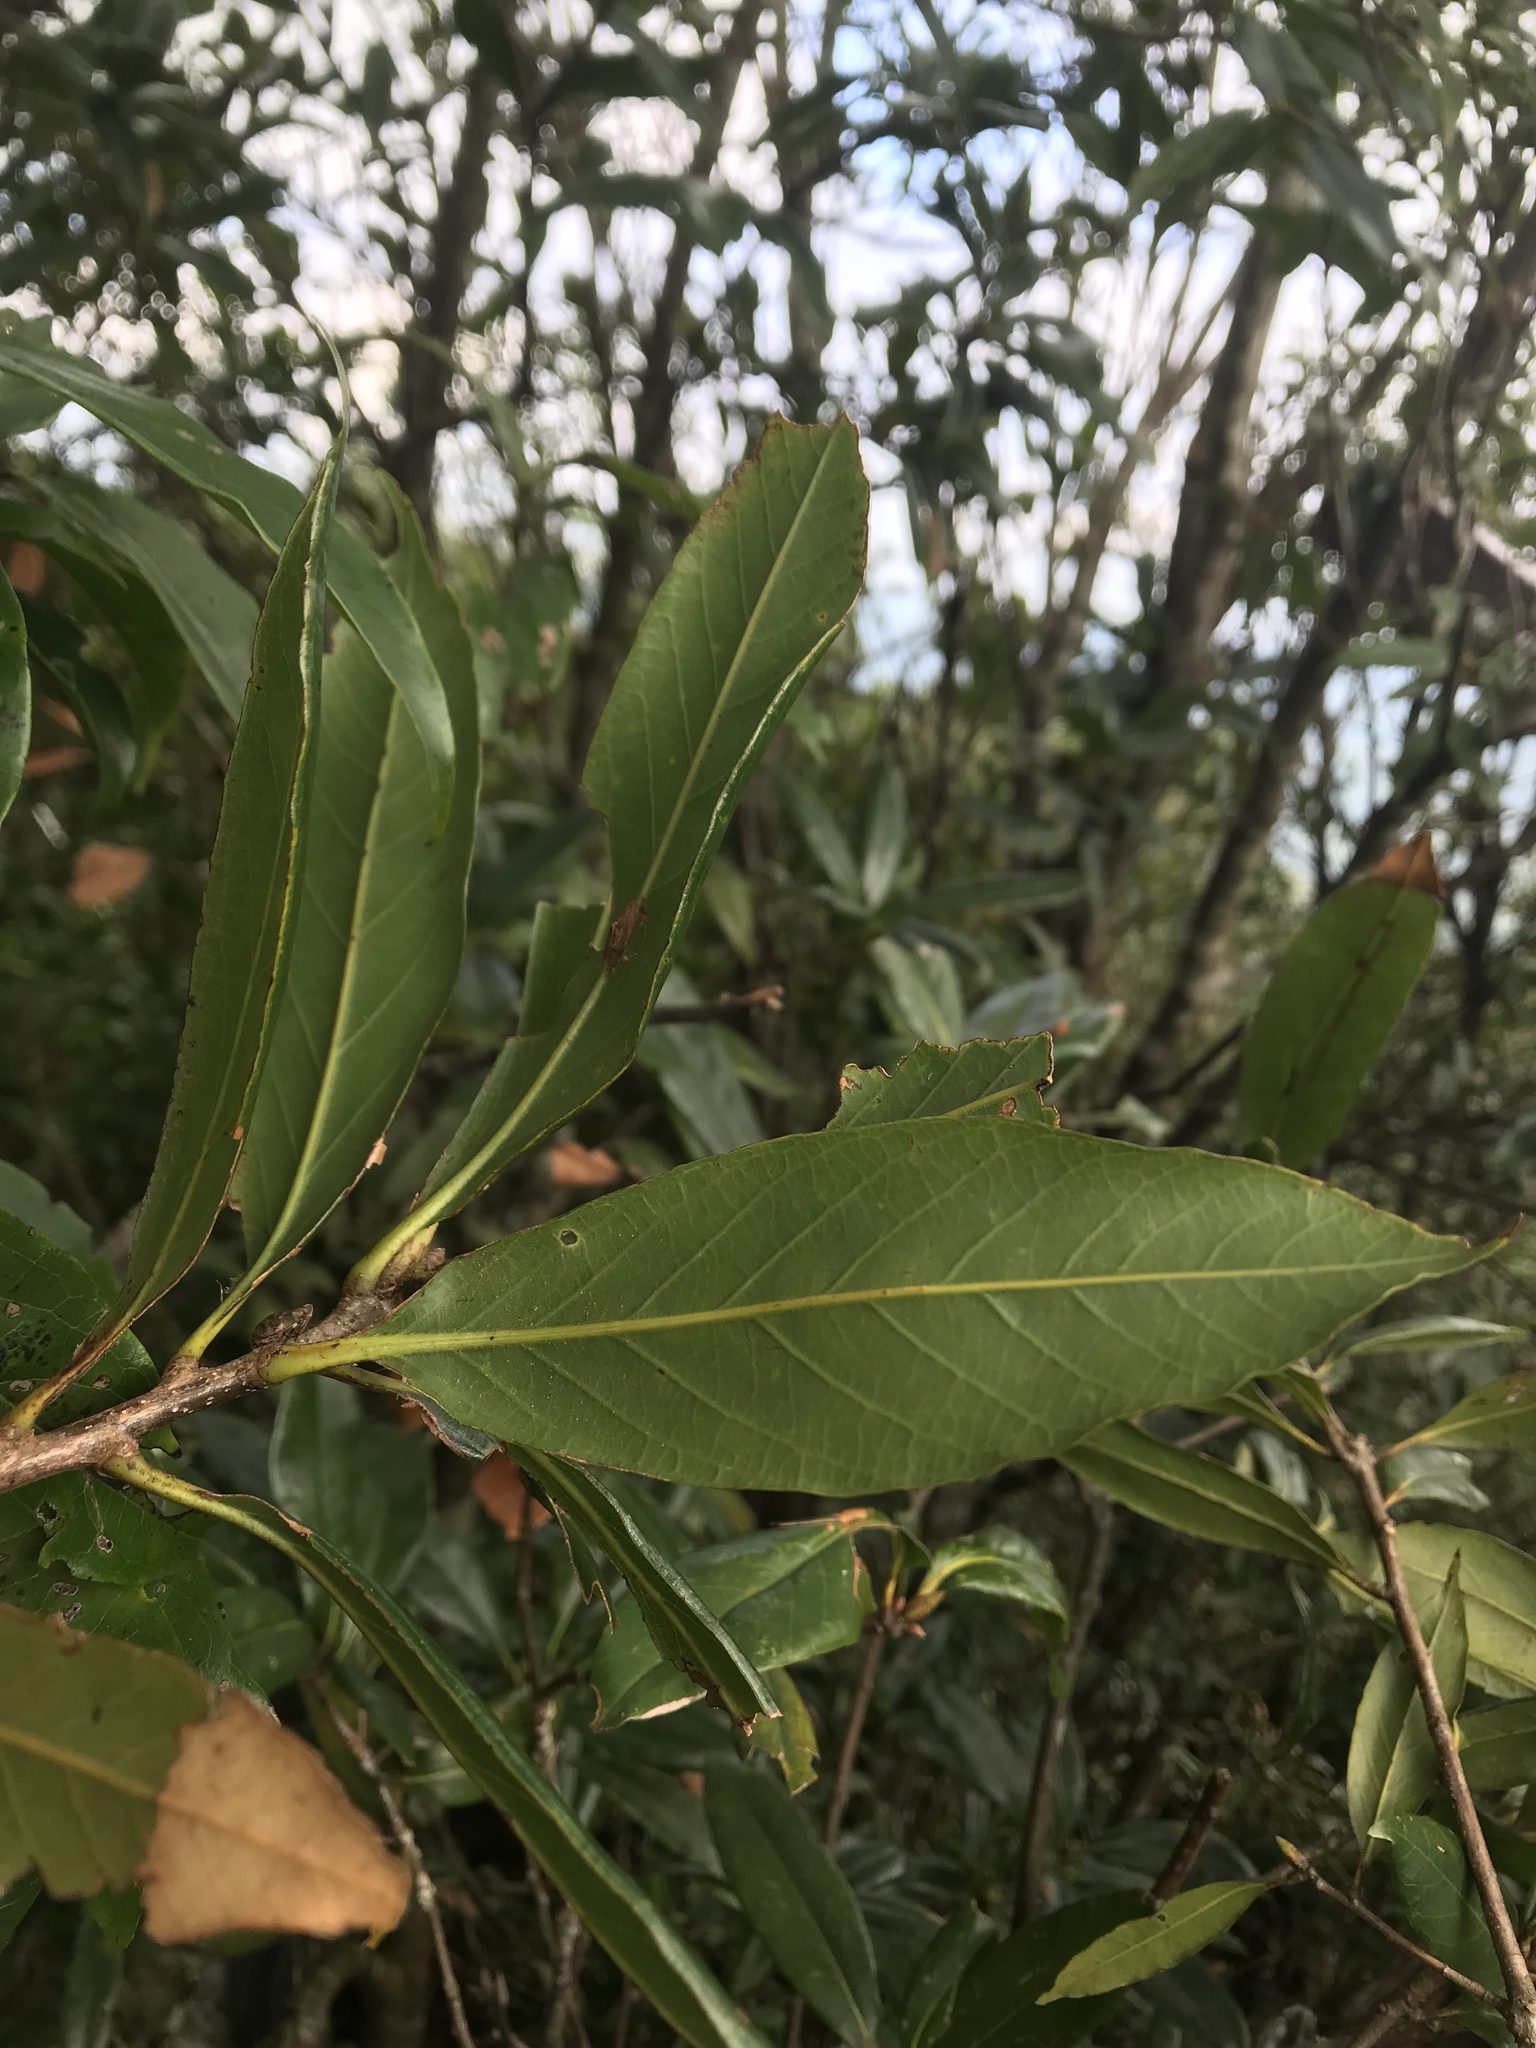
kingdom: Plantae
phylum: Tracheophyta
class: Magnoliopsida
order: Fagales
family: Fagaceae
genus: Quercus
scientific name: Quercus sessilifolia
